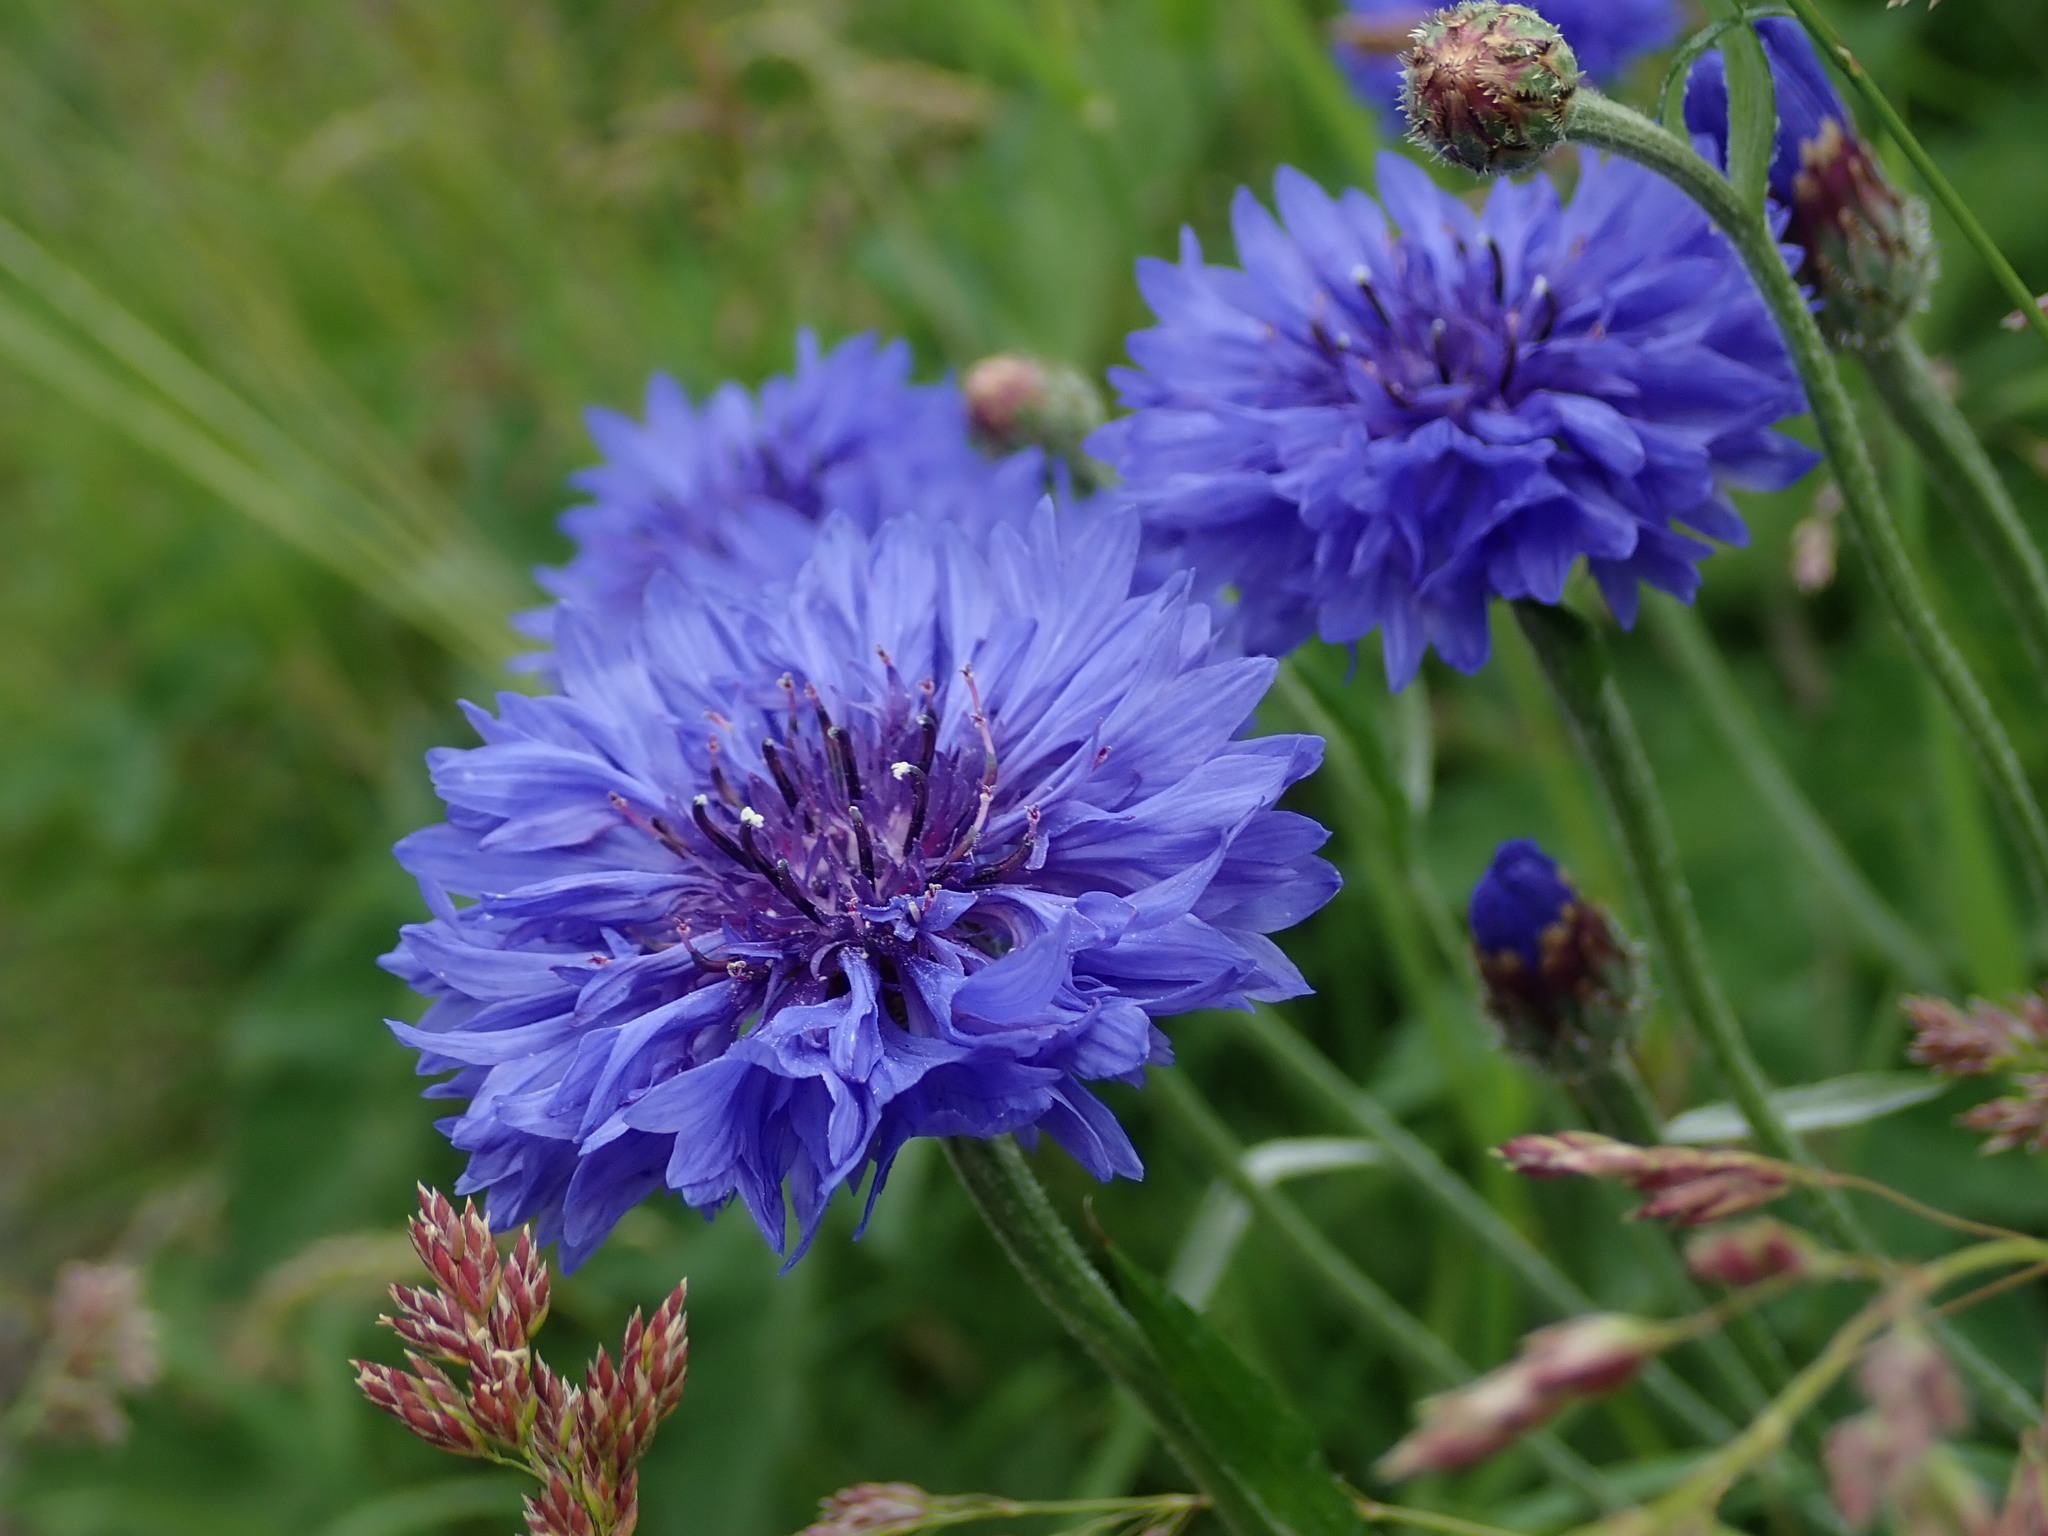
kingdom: Plantae
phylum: Tracheophyta
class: Magnoliopsida
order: Asterales
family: Asteraceae
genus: Centaurea
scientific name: Centaurea cyanus
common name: Cornflower
